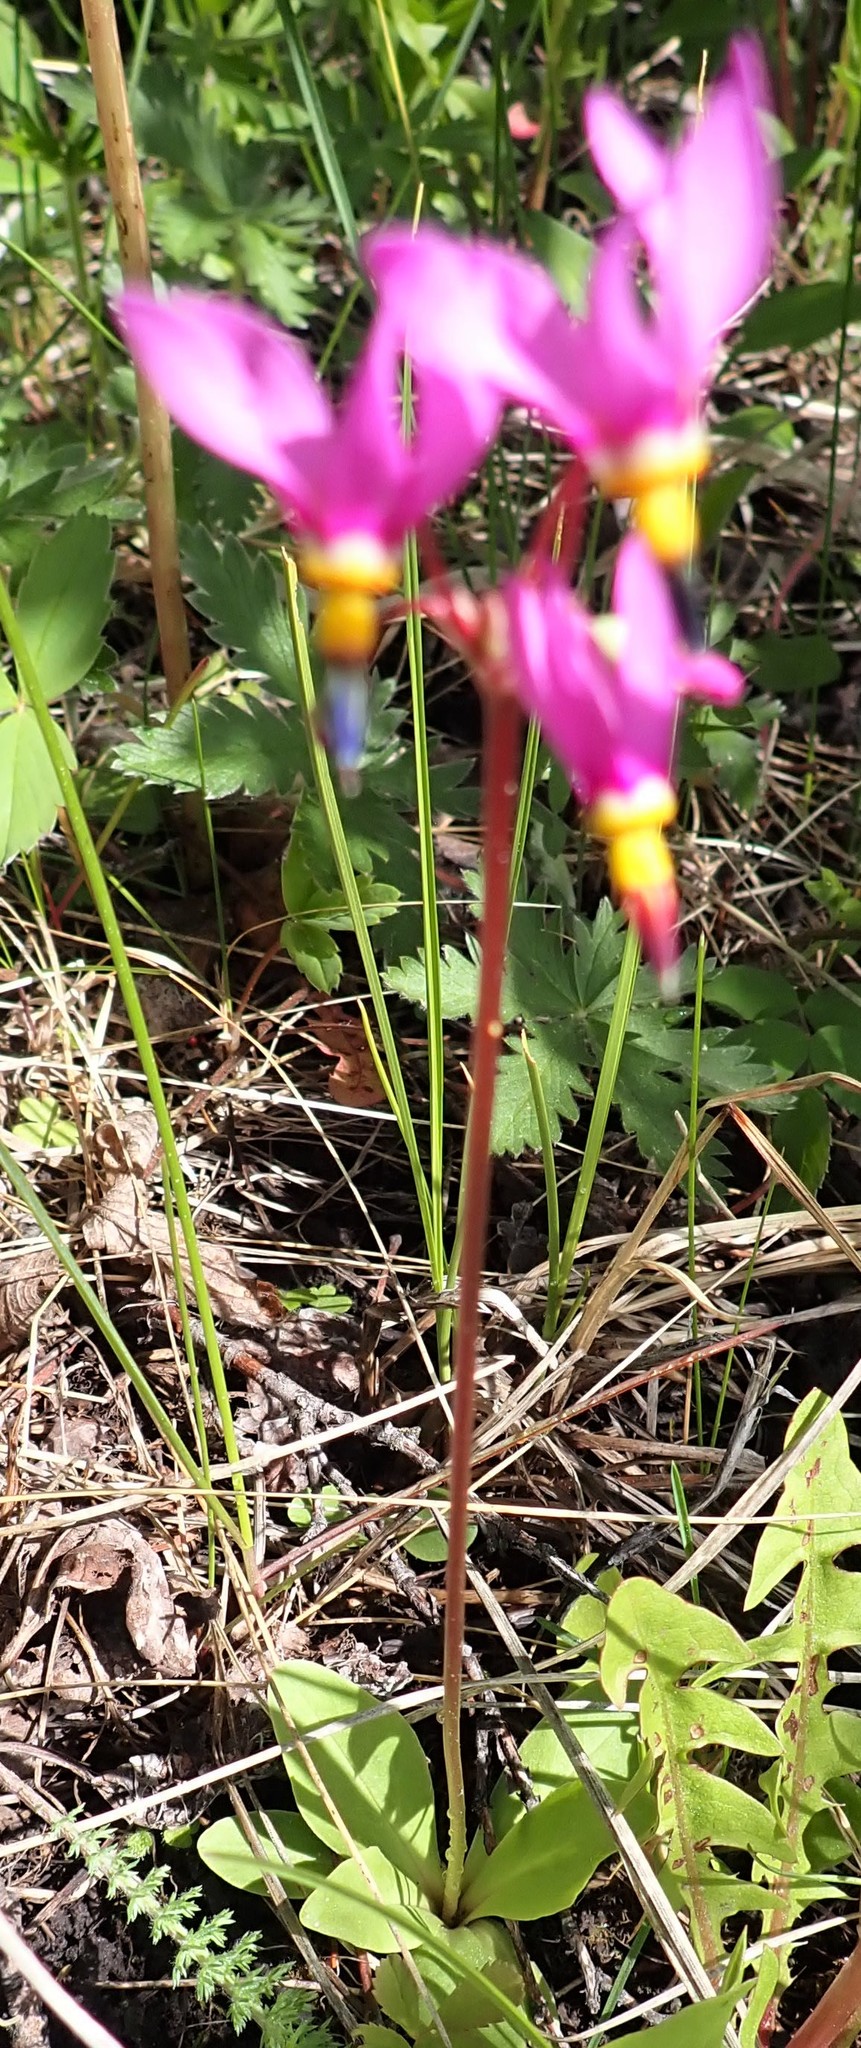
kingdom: Plantae
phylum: Tracheophyta
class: Magnoliopsida
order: Ericales
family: Primulaceae
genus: Dodecatheon
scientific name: Dodecatheon pulchellum
